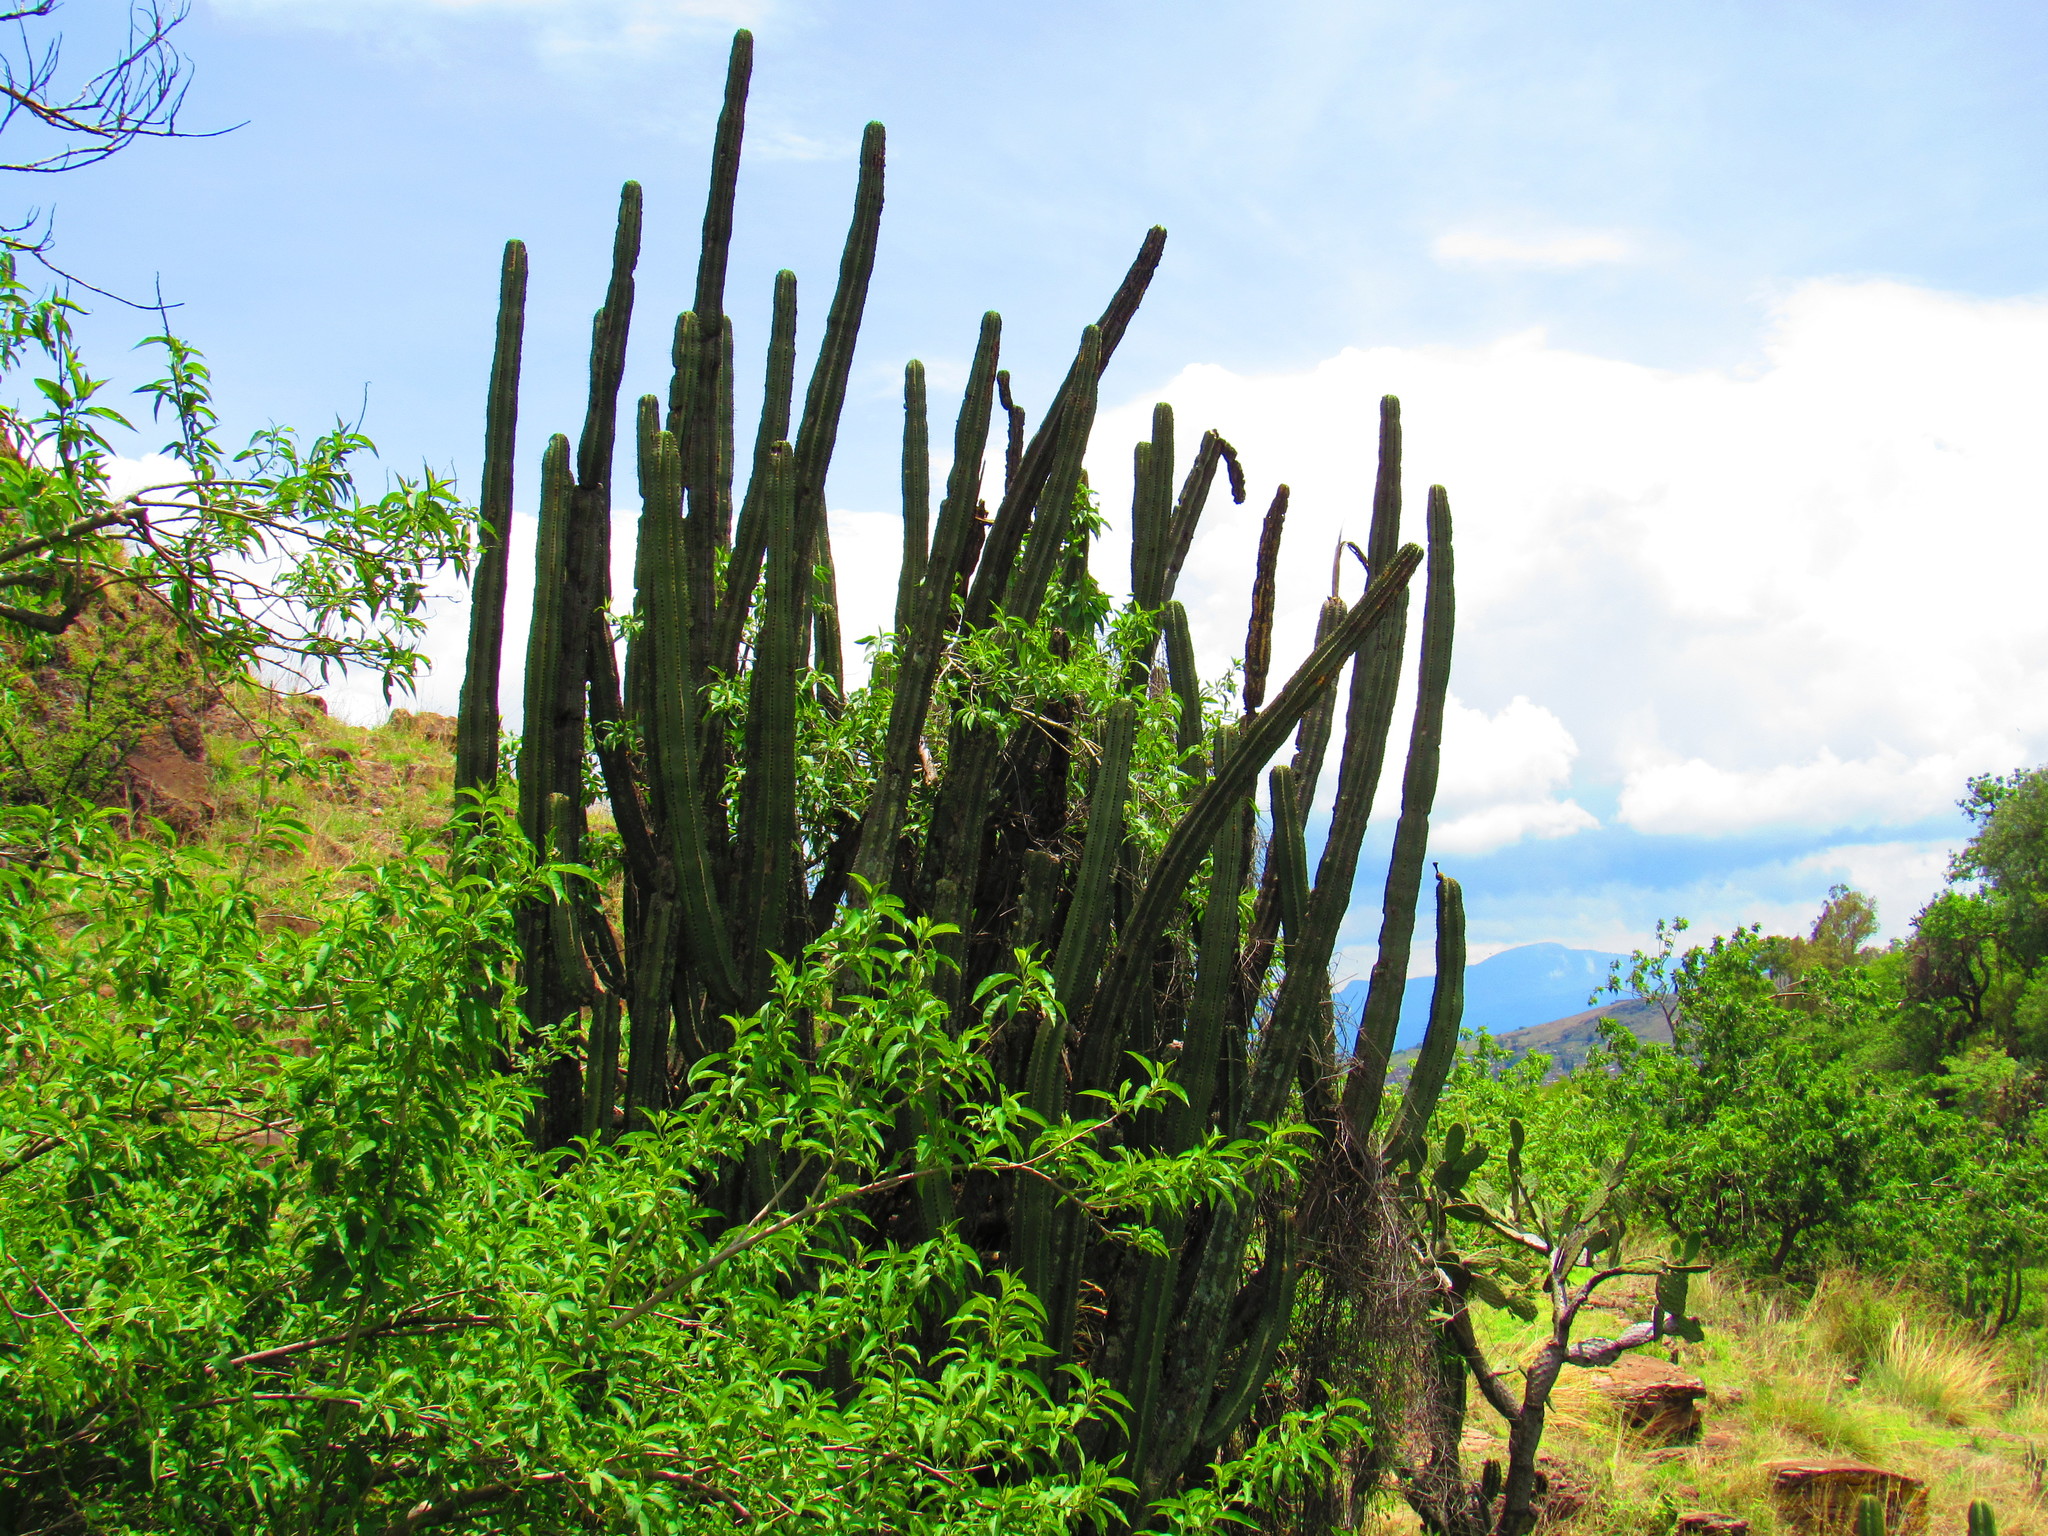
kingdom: Plantae
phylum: Tracheophyta
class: Magnoliopsida
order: Caryophyllales
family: Cactaceae
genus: Stenocereus
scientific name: Stenocereus queretaroensis
